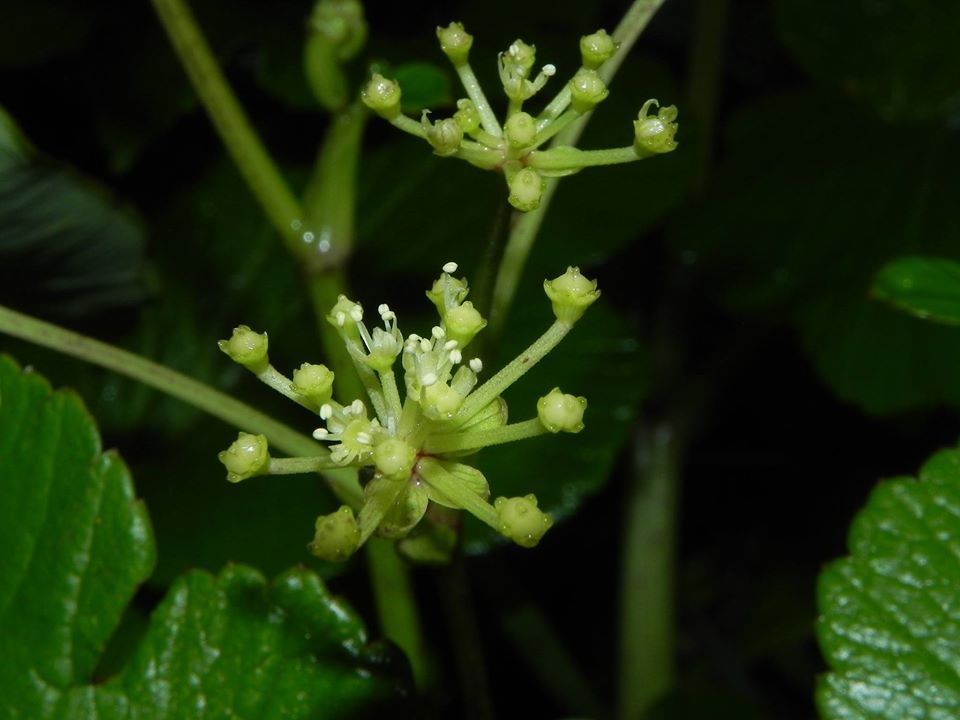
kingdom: Plantae
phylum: Tracheophyta
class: Magnoliopsida
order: Apiales
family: Apiaceae
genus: Tetrataenium
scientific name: Tetrataenium grande
